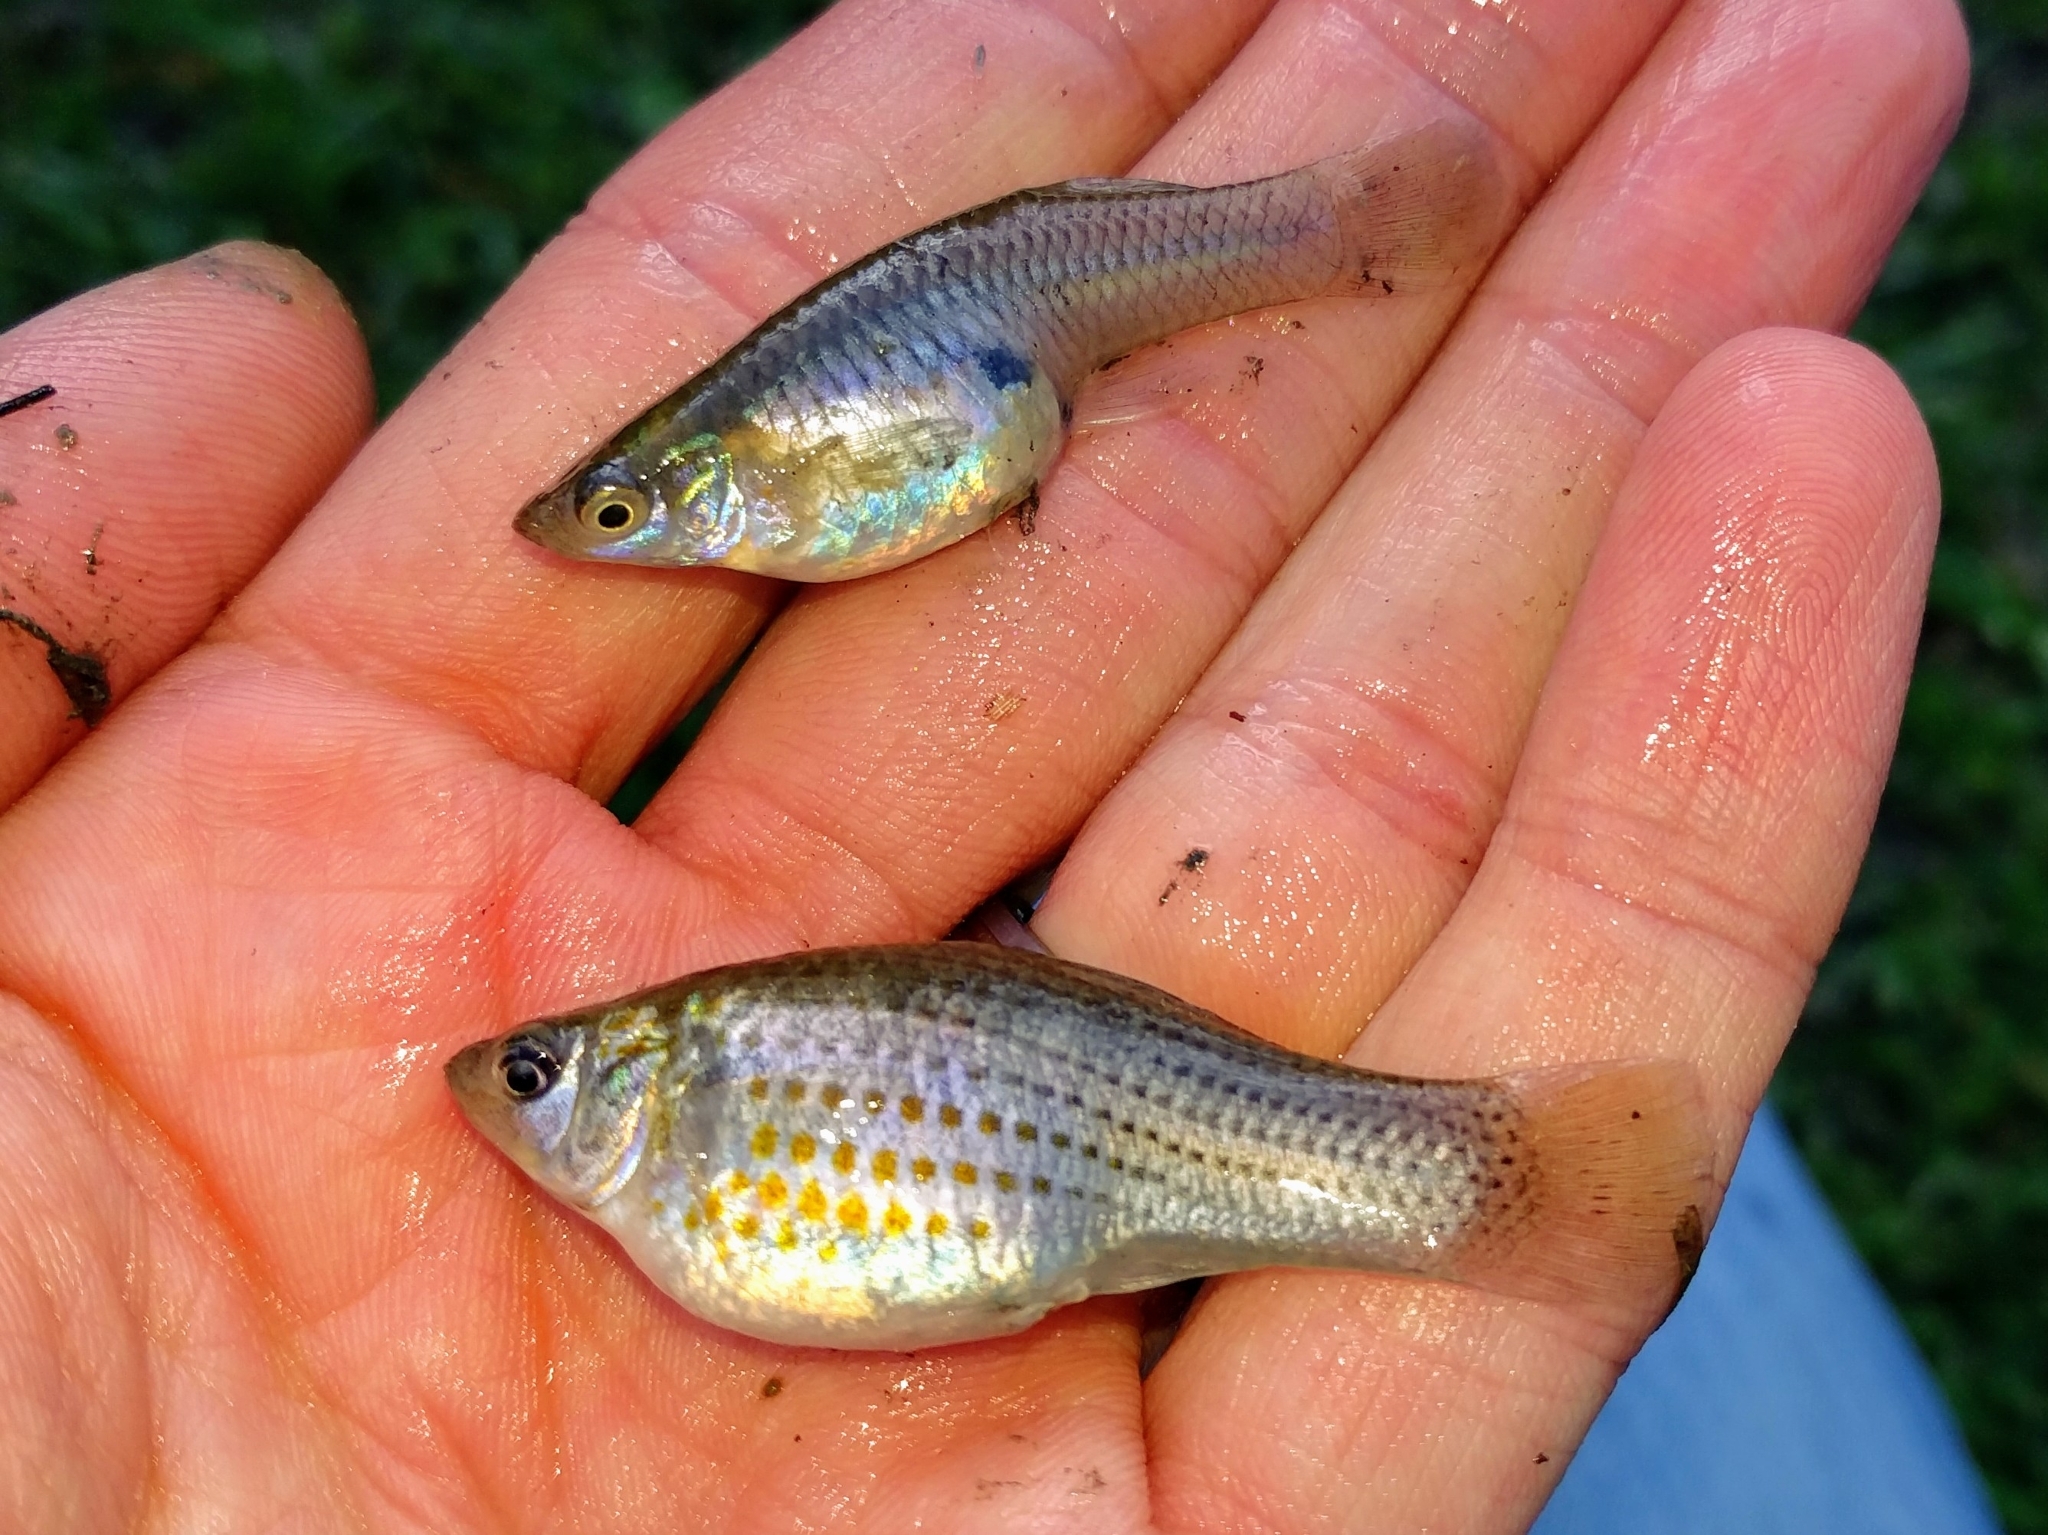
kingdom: Animalia
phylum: Chordata
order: Cyprinodontiformes
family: Poeciliidae
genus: Gambusia
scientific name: Gambusia affinis
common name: Mosquitofish
